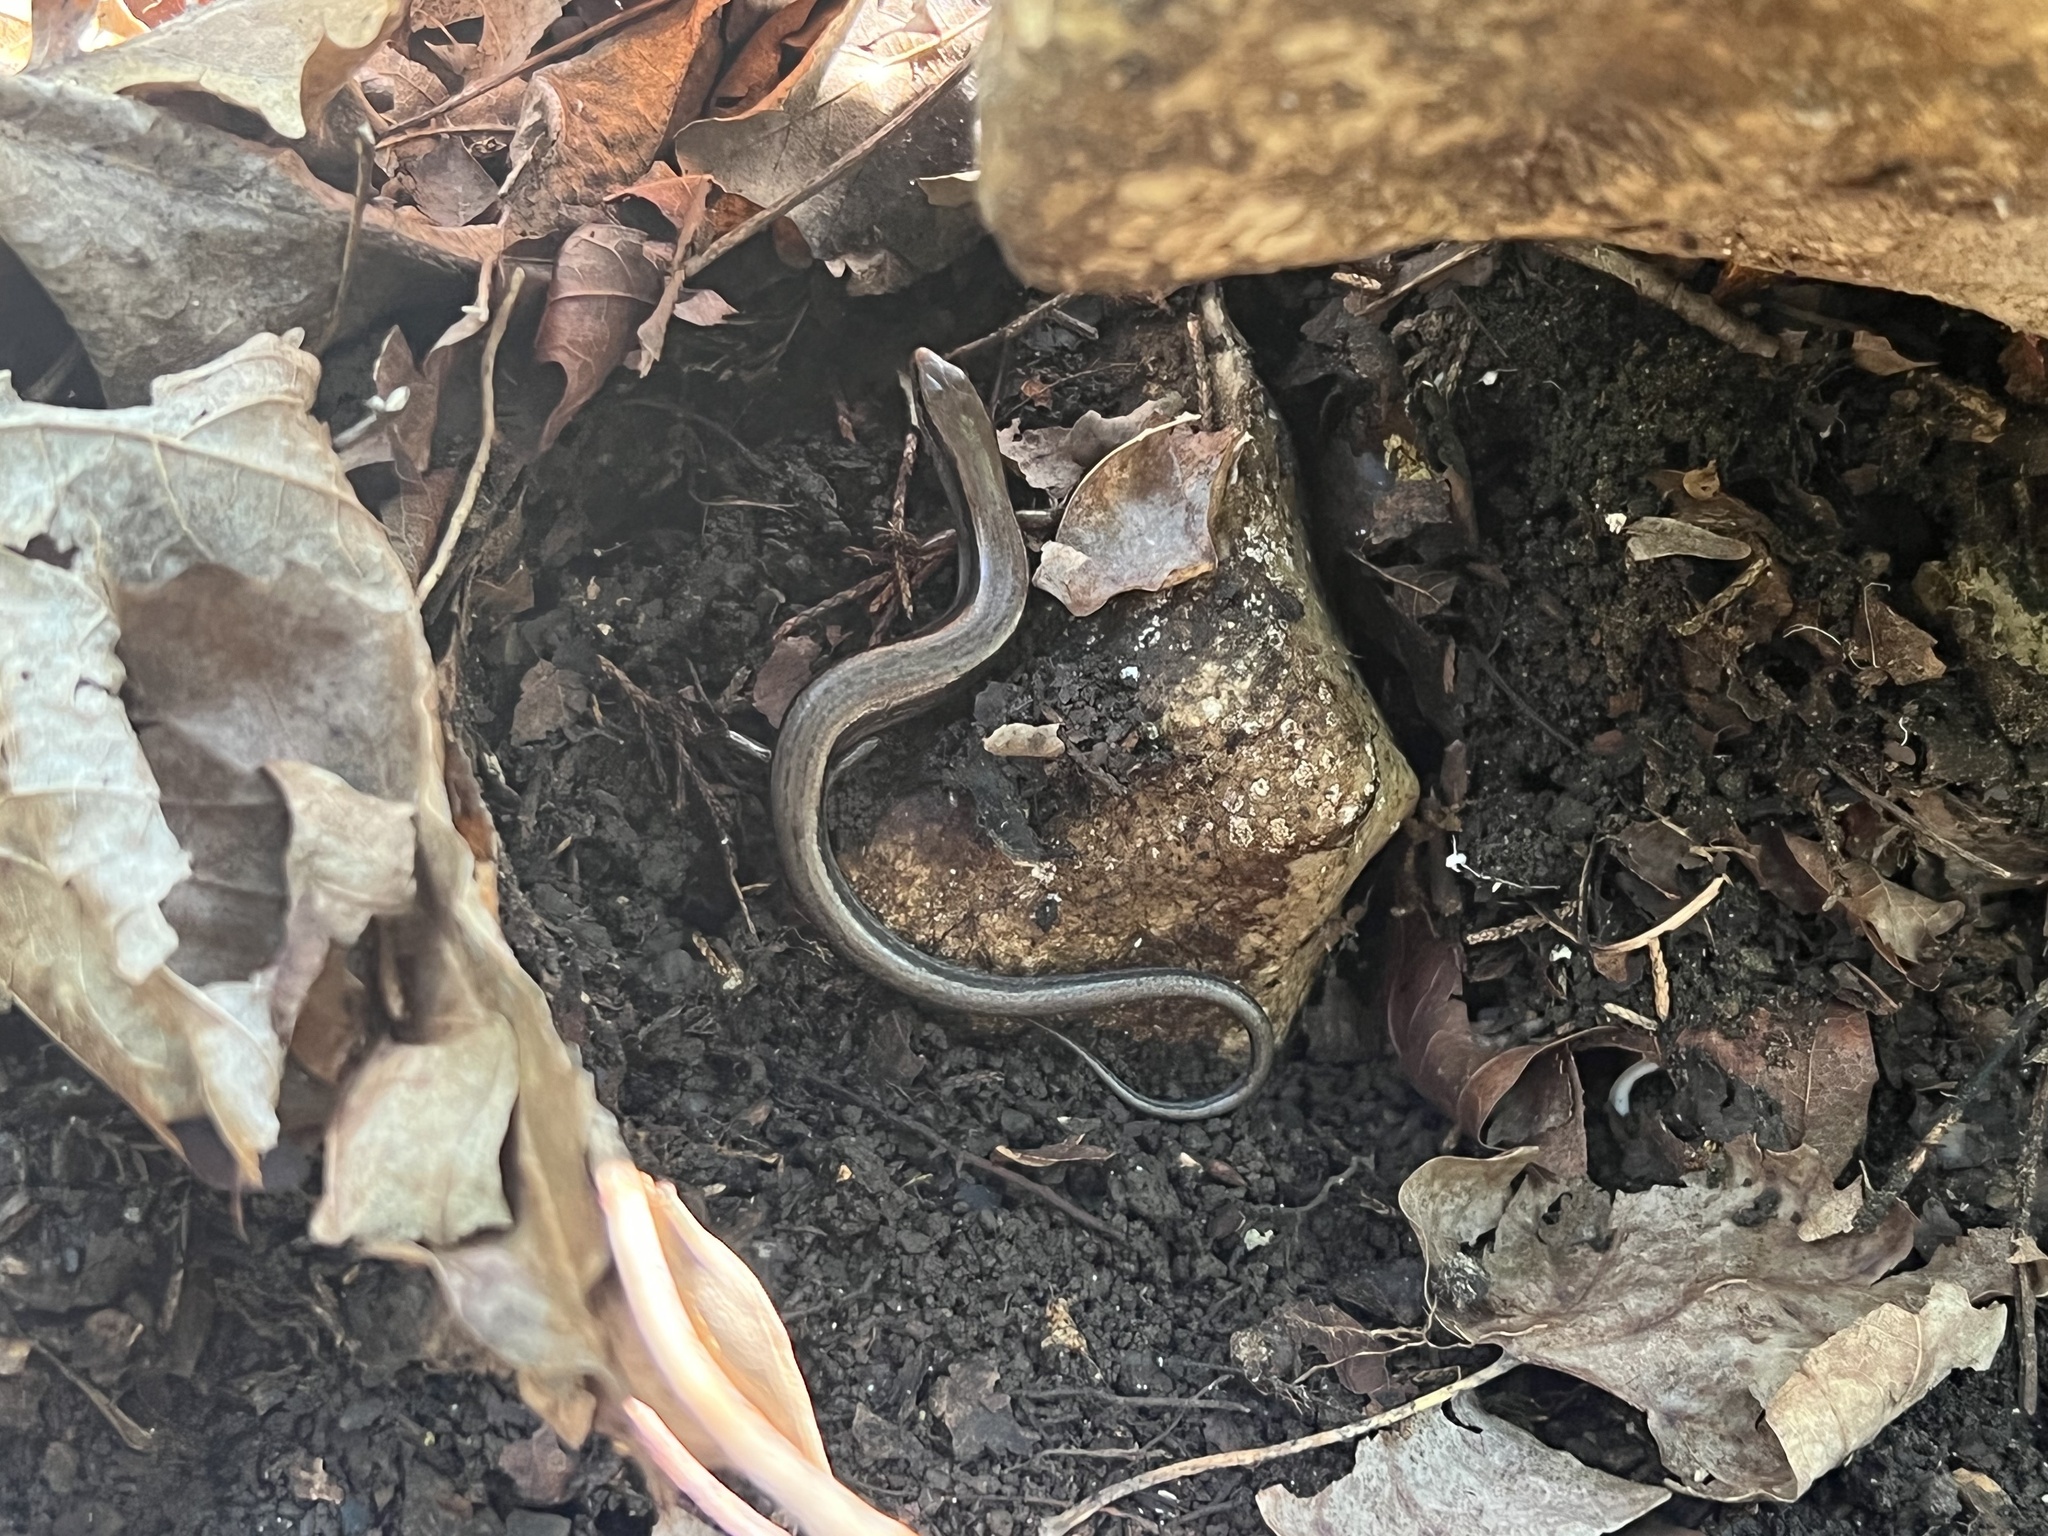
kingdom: Animalia
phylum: Chordata
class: Squamata
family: Scincidae
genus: Scincella
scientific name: Scincella lateralis
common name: Ground skink
